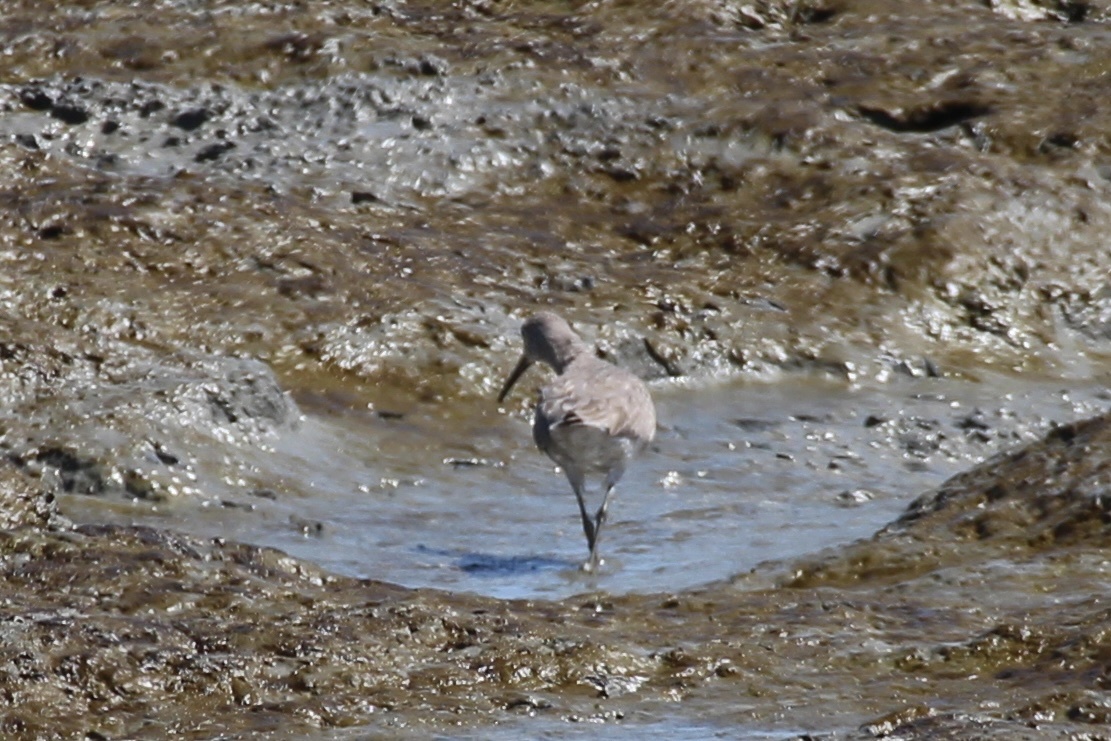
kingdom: Animalia
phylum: Chordata
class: Aves
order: Charadriiformes
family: Scolopacidae
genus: Tringa
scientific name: Tringa semipalmata
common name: Willet
